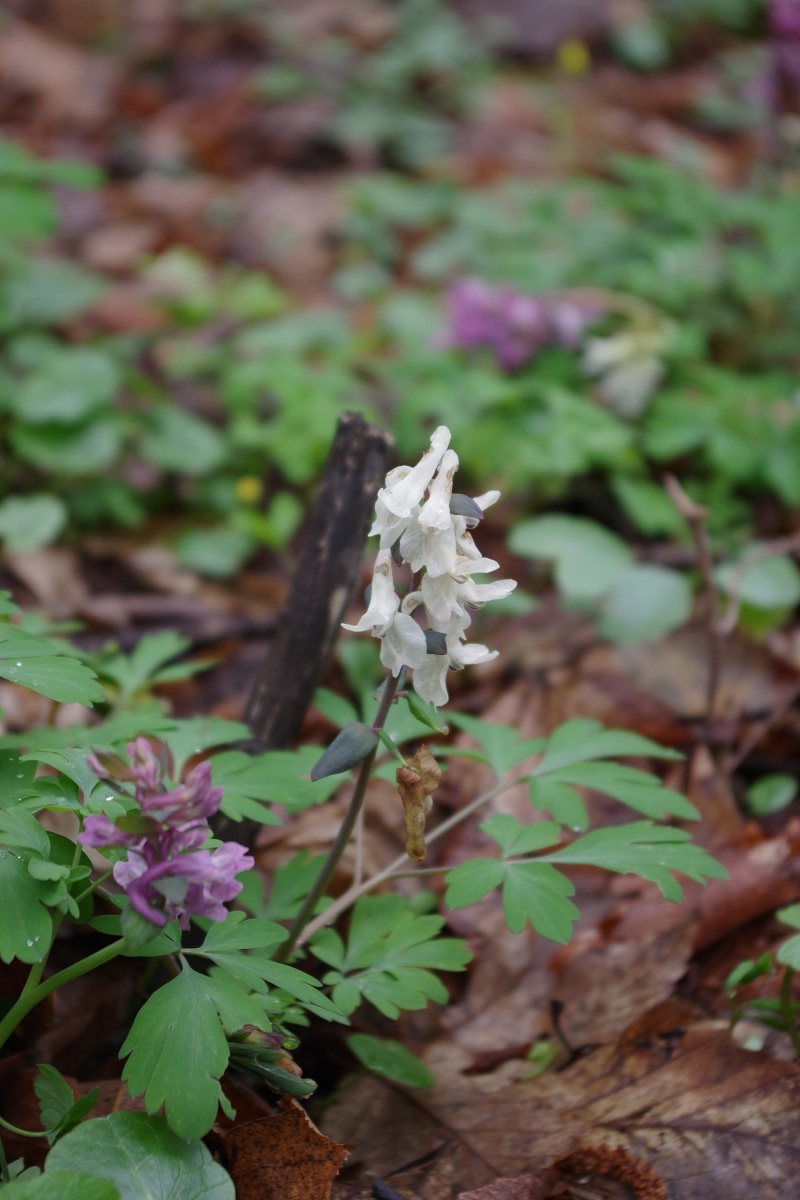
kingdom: Plantae
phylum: Tracheophyta
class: Magnoliopsida
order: Ranunculales
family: Papaveraceae
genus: Corydalis
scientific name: Corydalis cava
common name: Hollowroot
